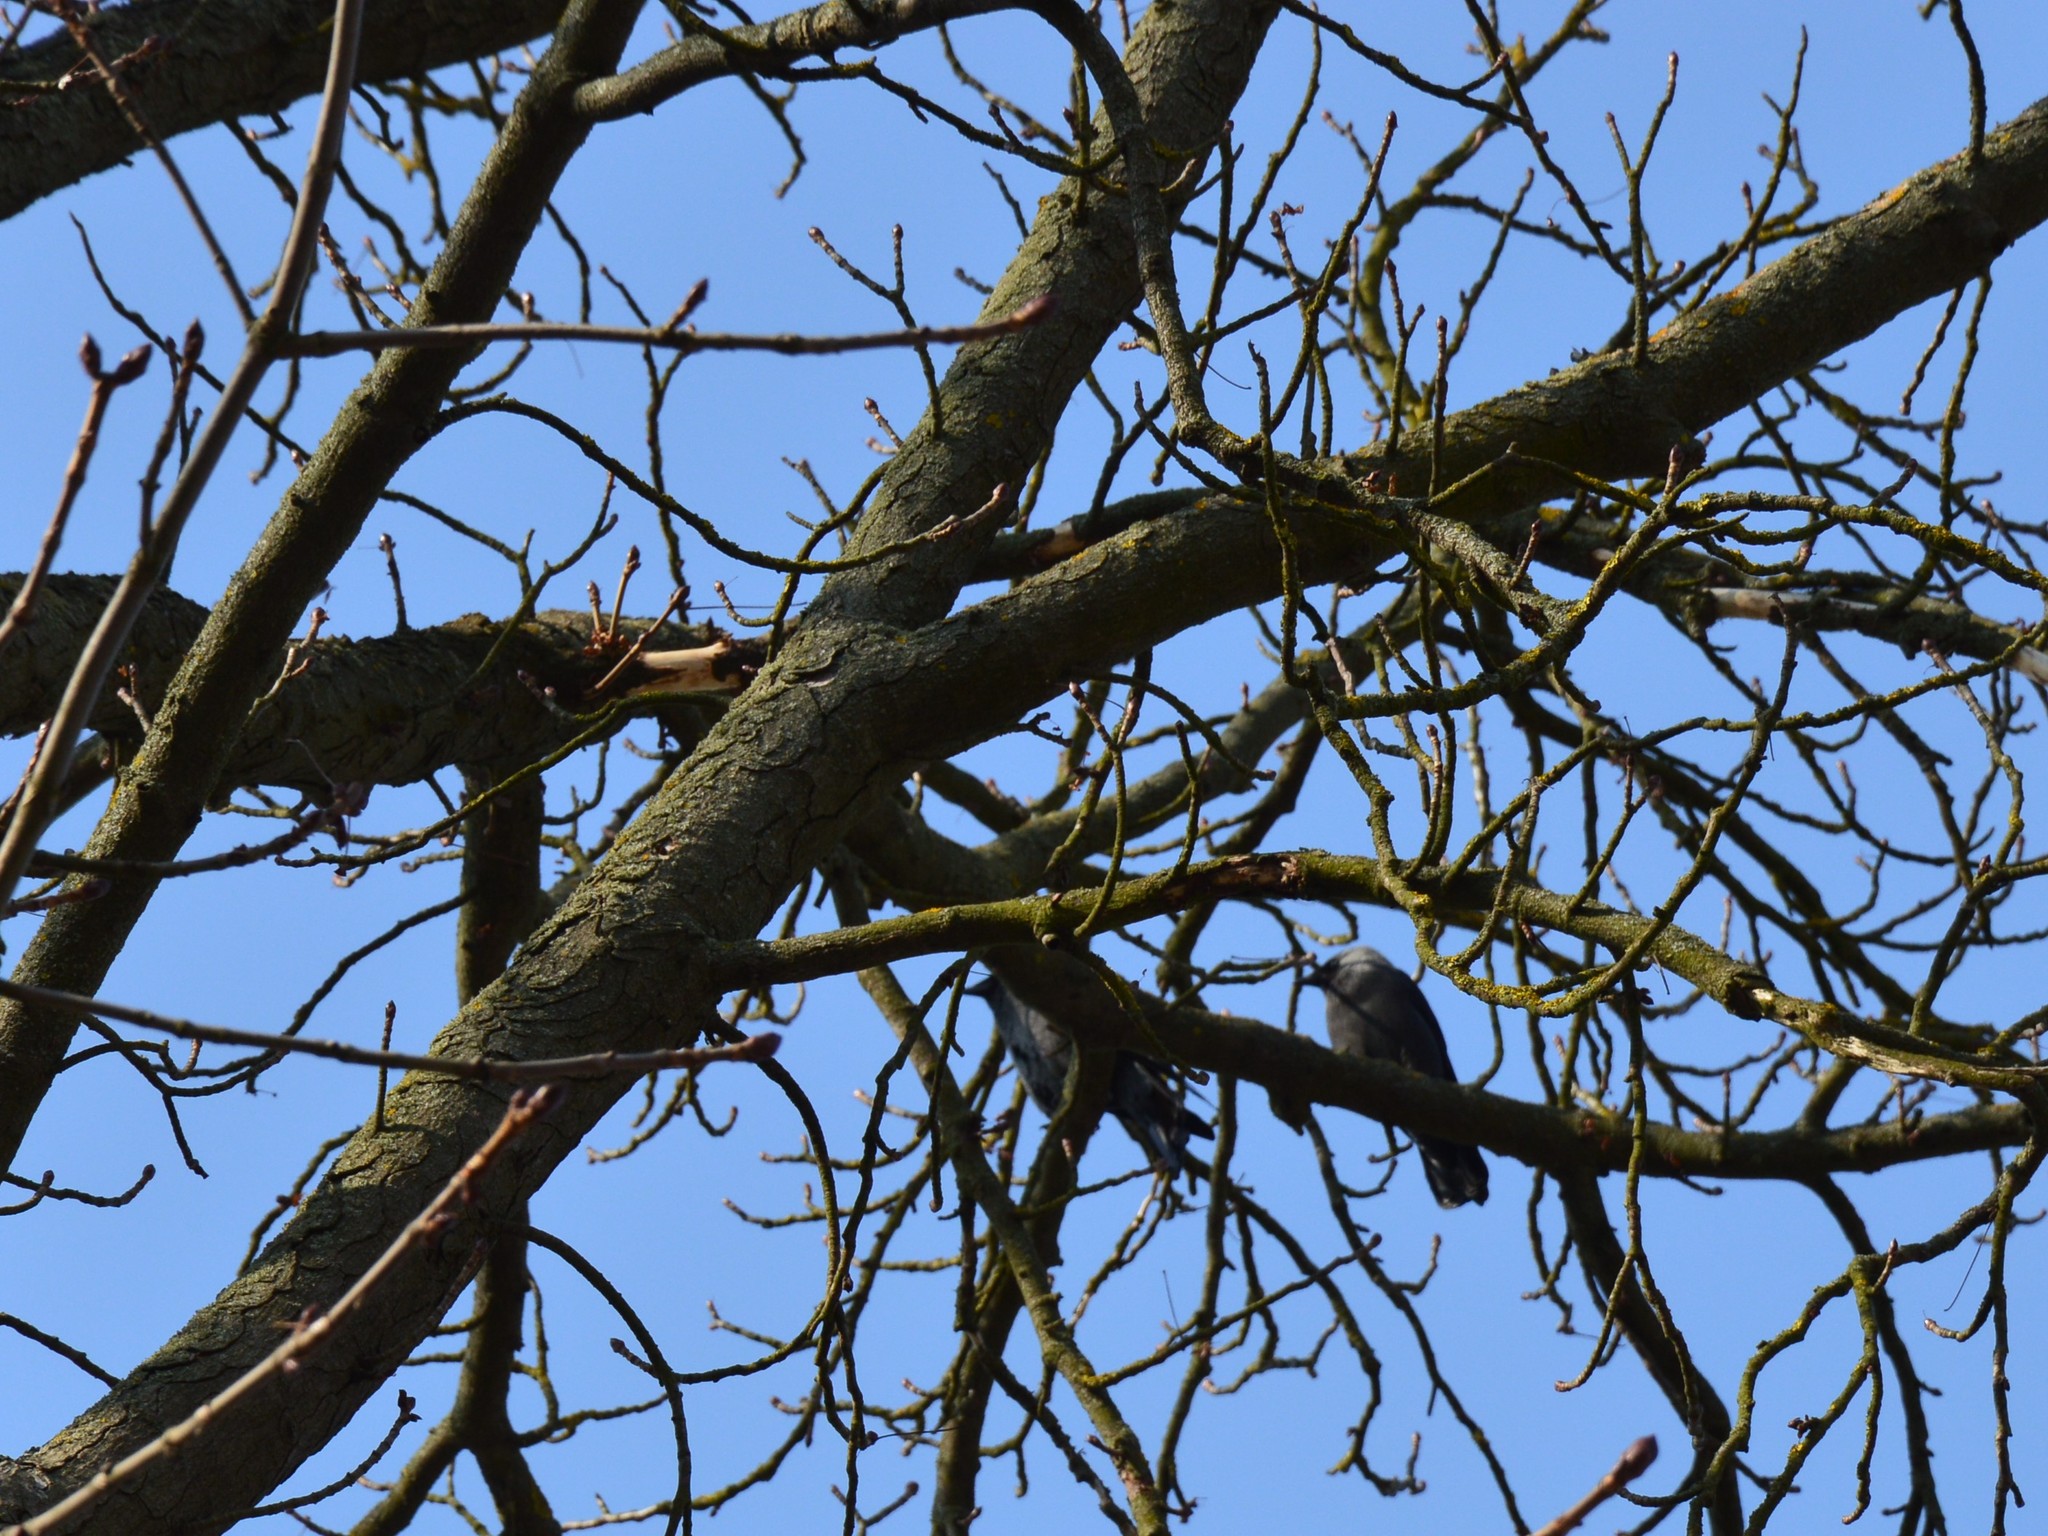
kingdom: Animalia
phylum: Chordata
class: Aves
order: Passeriformes
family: Corvidae
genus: Coloeus
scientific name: Coloeus monedula
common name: Western jackdaw
